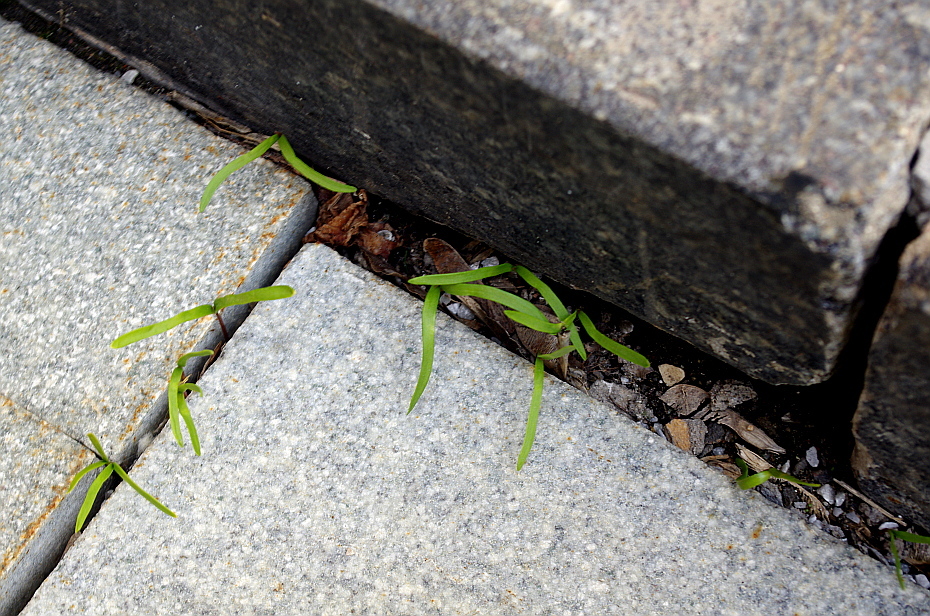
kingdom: Plantae
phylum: Tracheophyta
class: Magnoliopsida
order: Sapindales
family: Sapindaceae
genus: Acer
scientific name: Acer negundo
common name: Ashleaf maple
